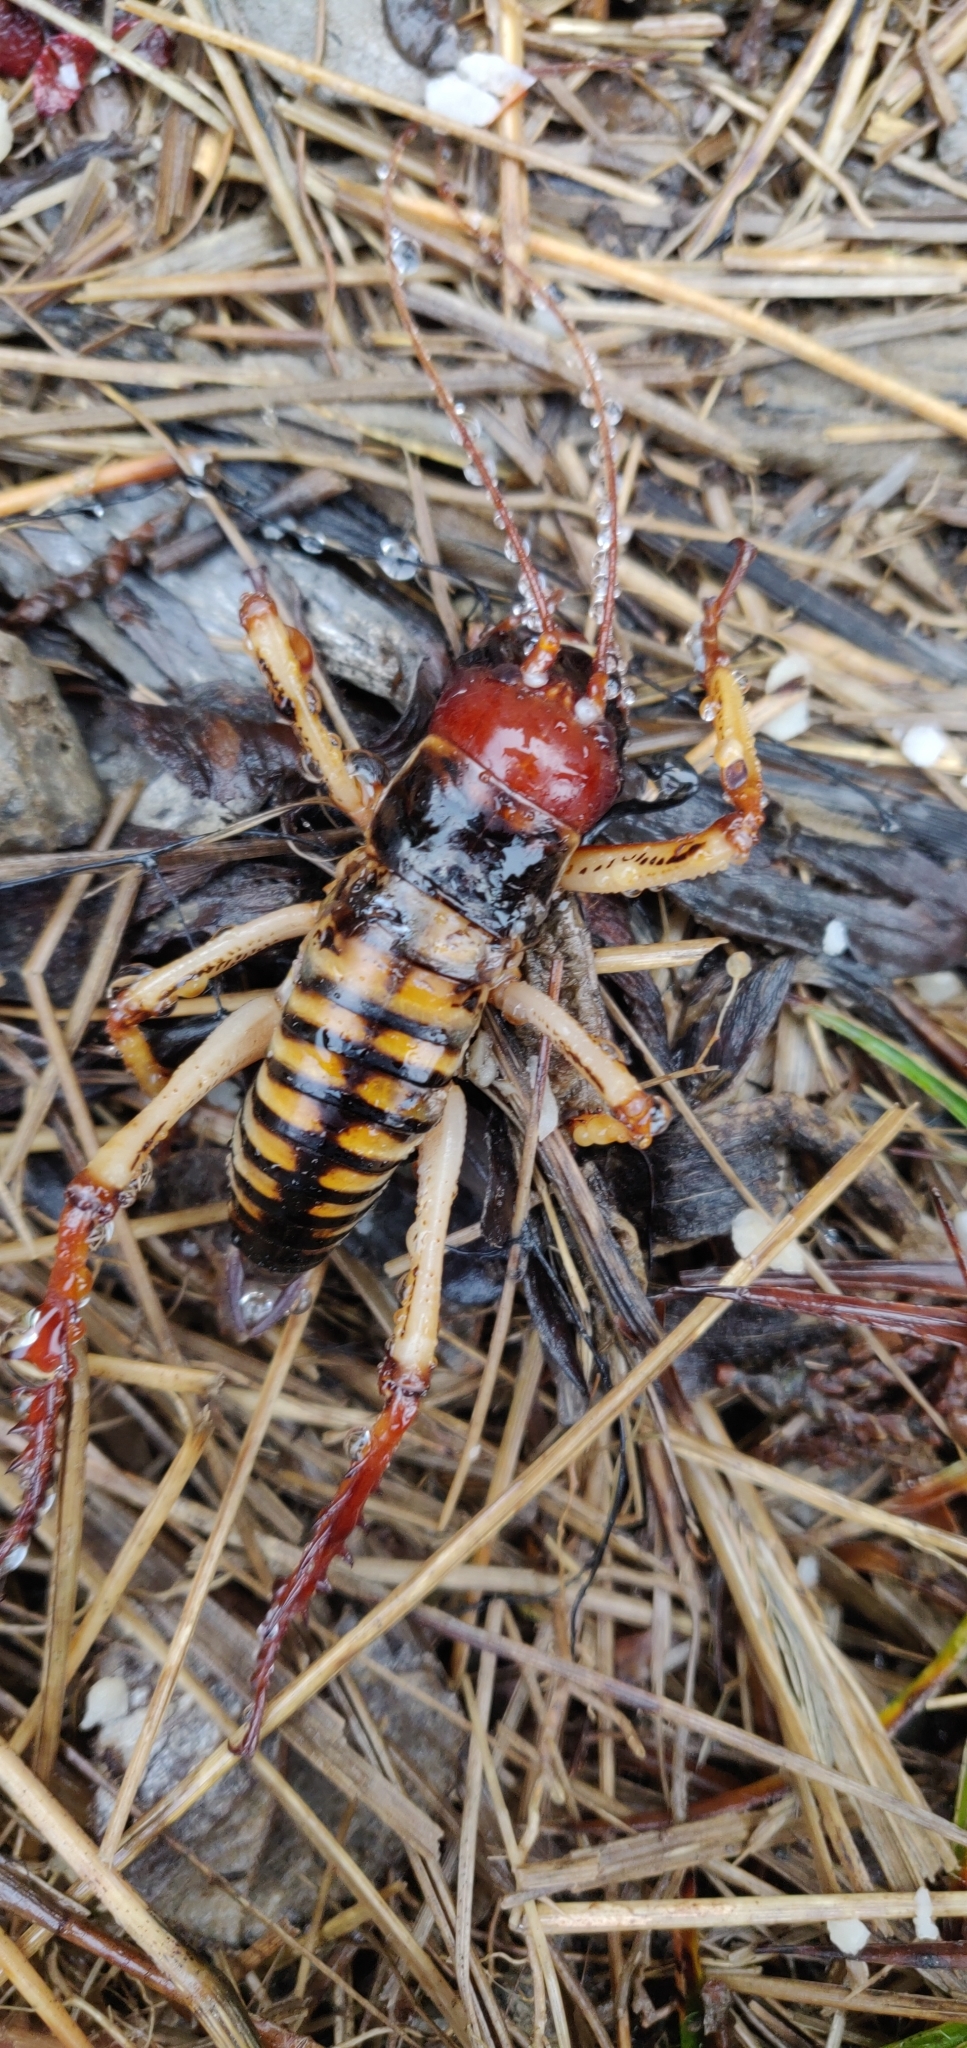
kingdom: Animalia
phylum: Arthropoda
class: Insecta
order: Orthoptera
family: Anostostomatidae
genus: Hemideina
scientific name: Hemideina crassidens
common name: Wellington tree weta
